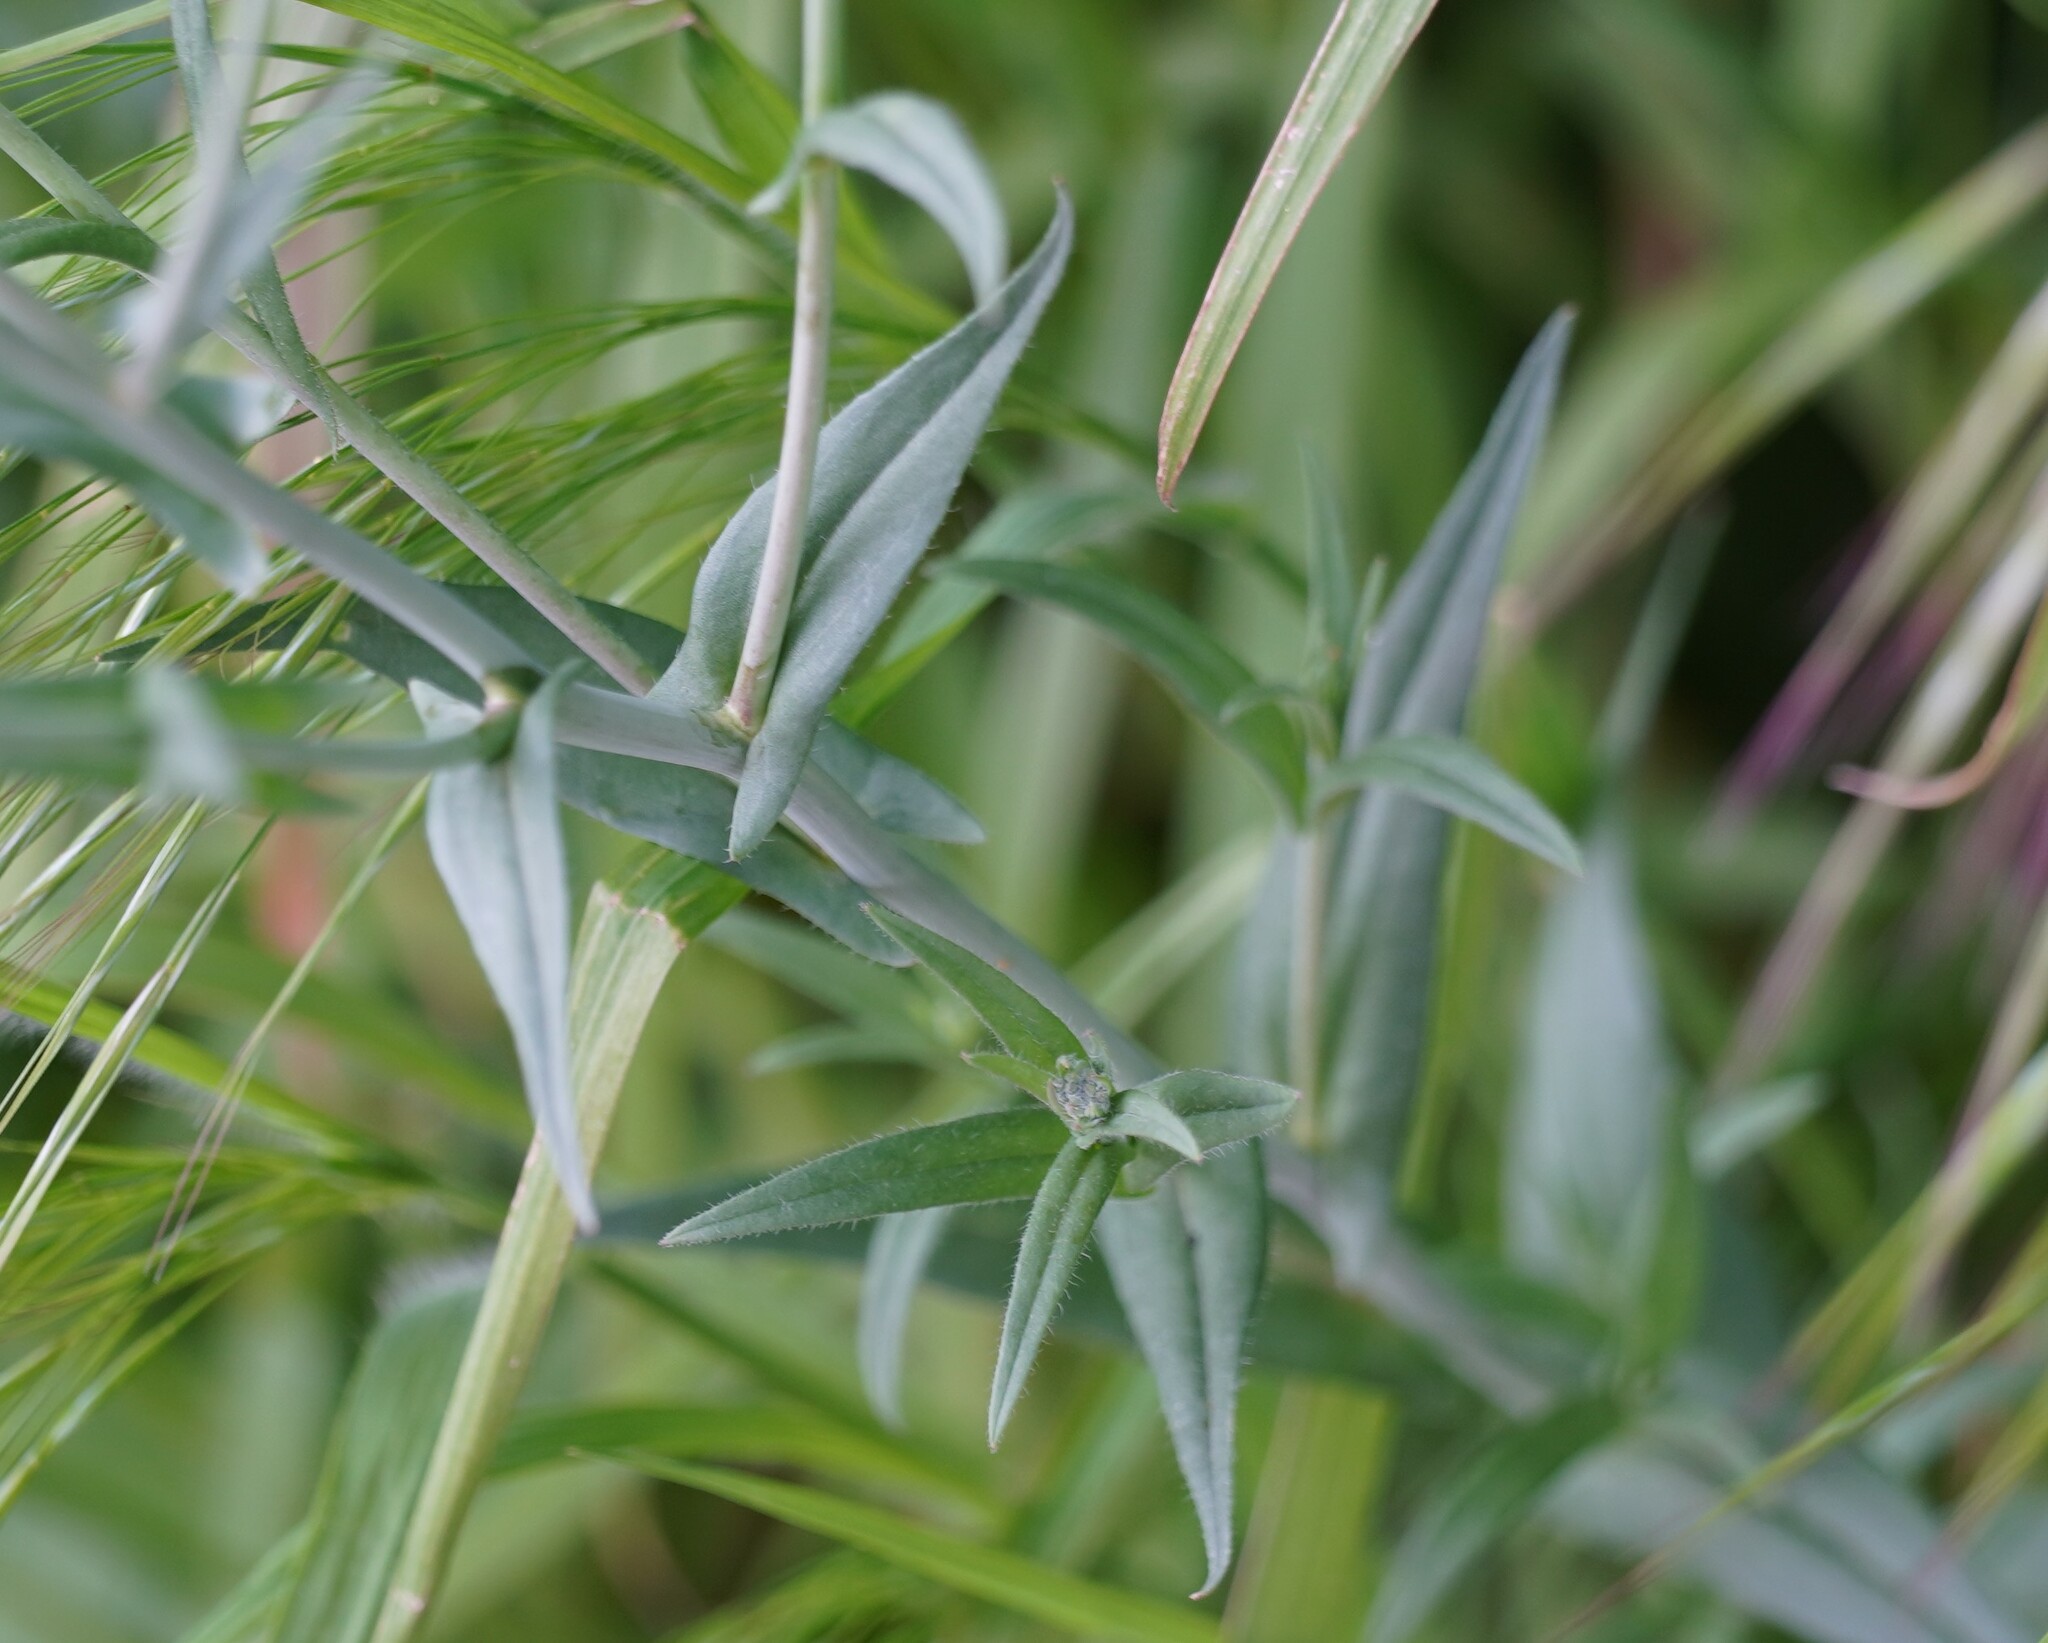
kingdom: Plantae
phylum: Tracheophyta
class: Magnoliopsida
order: Brassicales
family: Brassicaceae
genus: Camelina
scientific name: Camelina sativa
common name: Gold-of-pleasure
